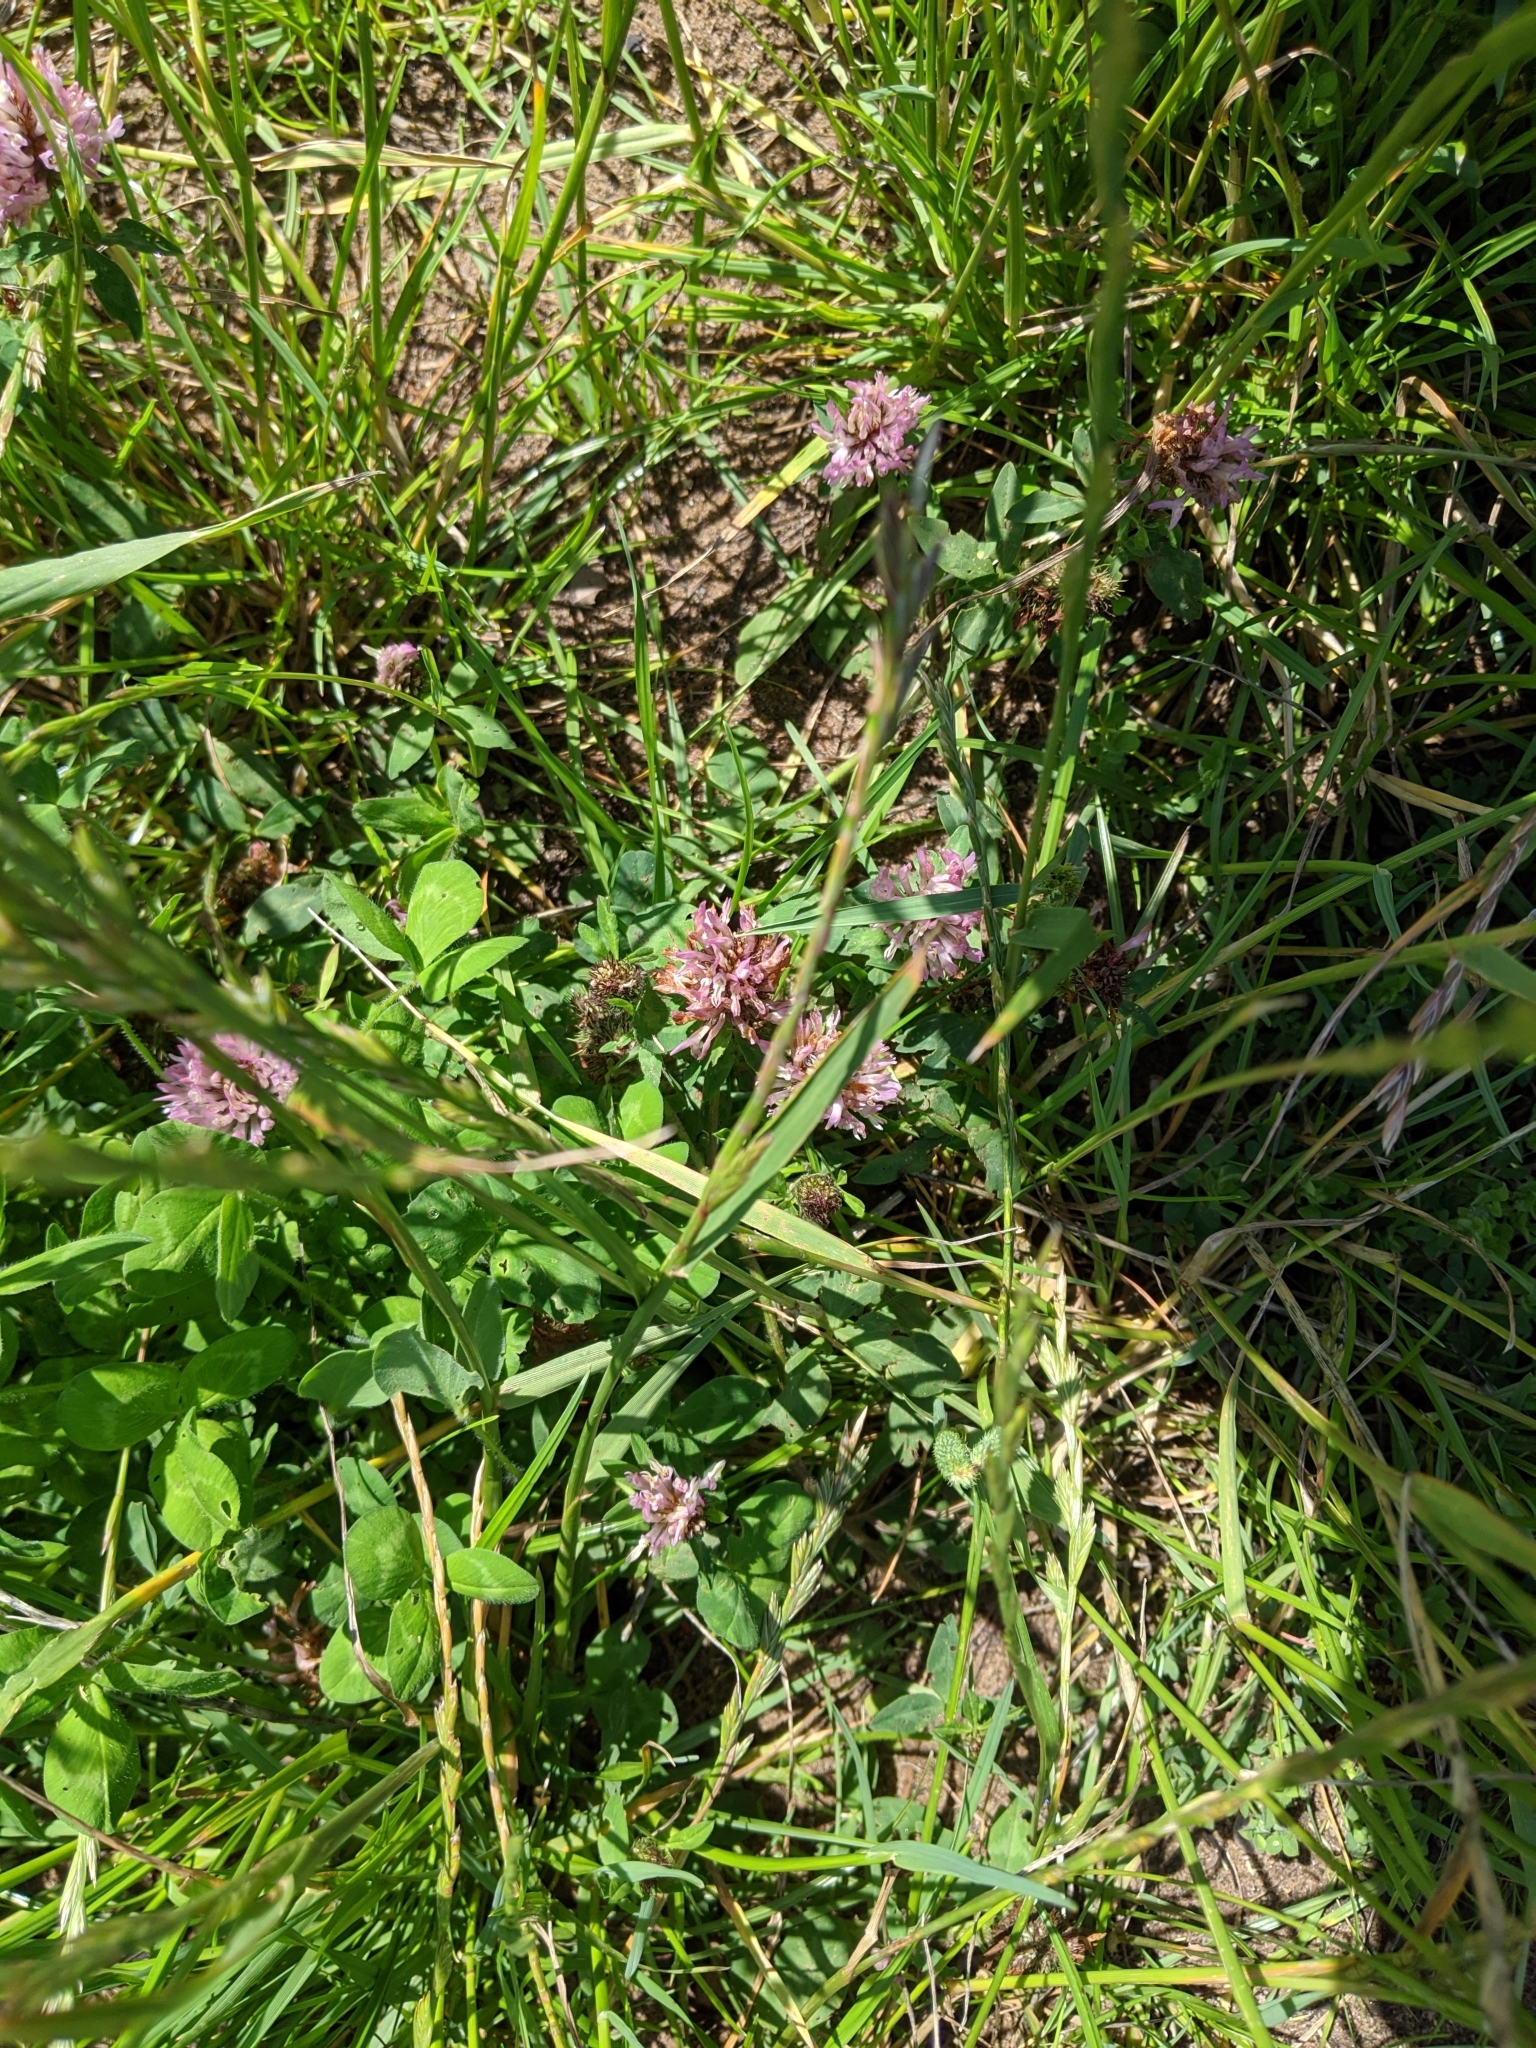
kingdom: Plantae
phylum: Tracheophyta
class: Magnoliopsida
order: Fabales
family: Fabaceae
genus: Trifolium
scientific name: Trifolium pratense
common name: Red clover
